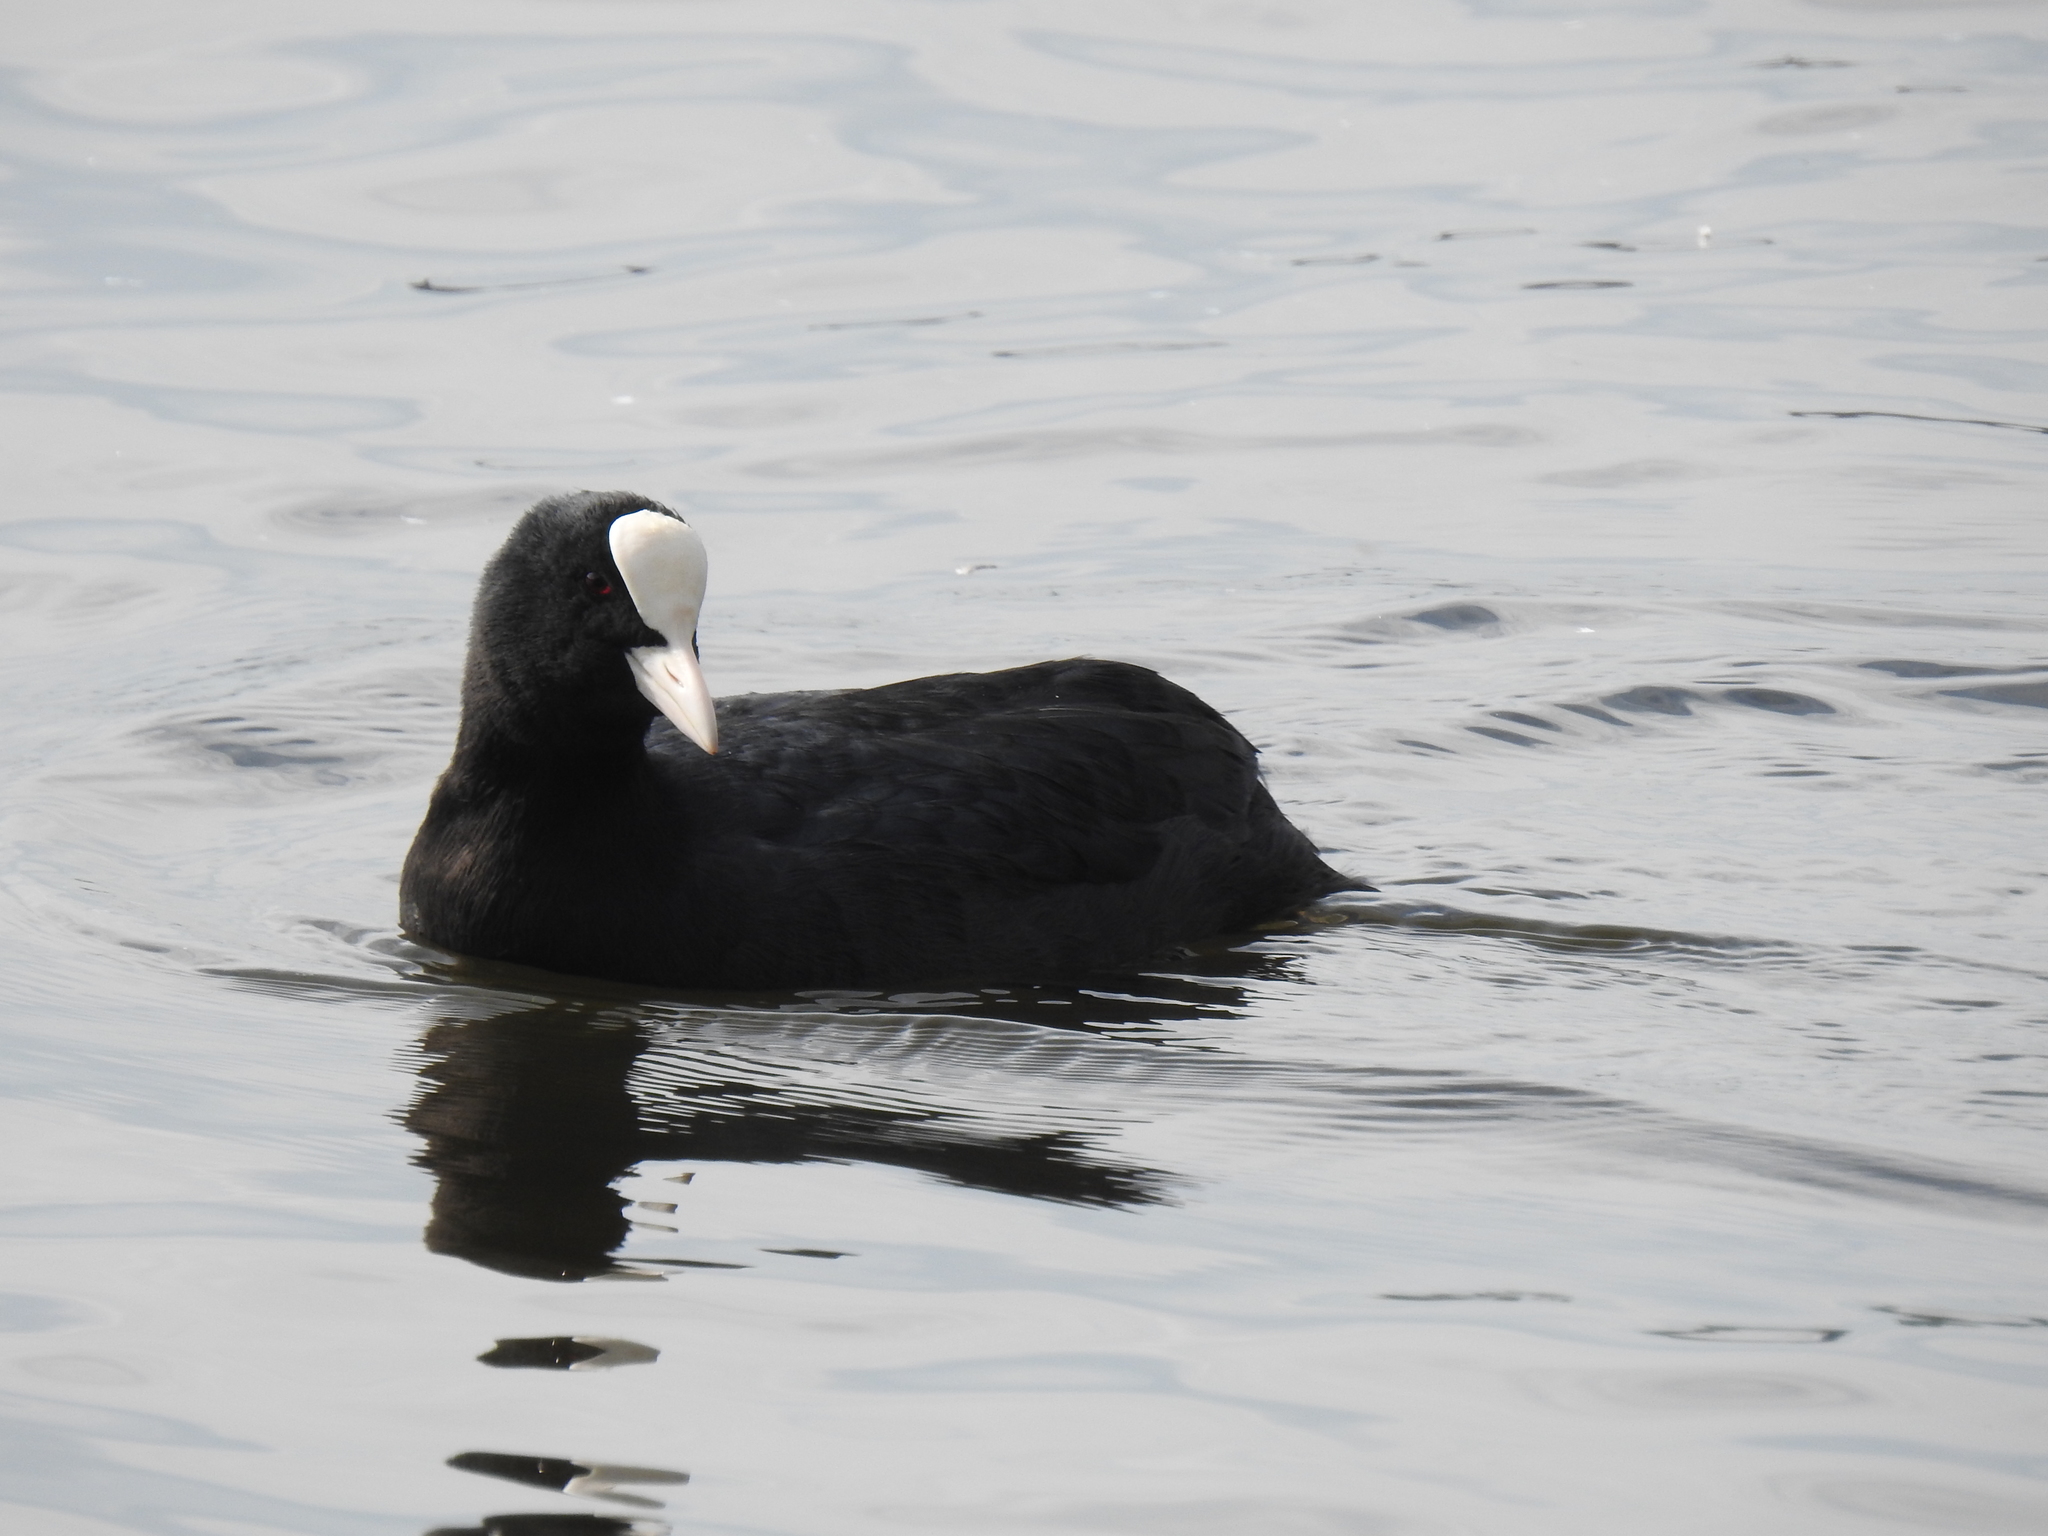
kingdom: Animalia
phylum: Chordata
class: Aves
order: Gruiformes
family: Rallidae
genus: Fulica
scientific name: Fulica atra
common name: Eurasian coot
